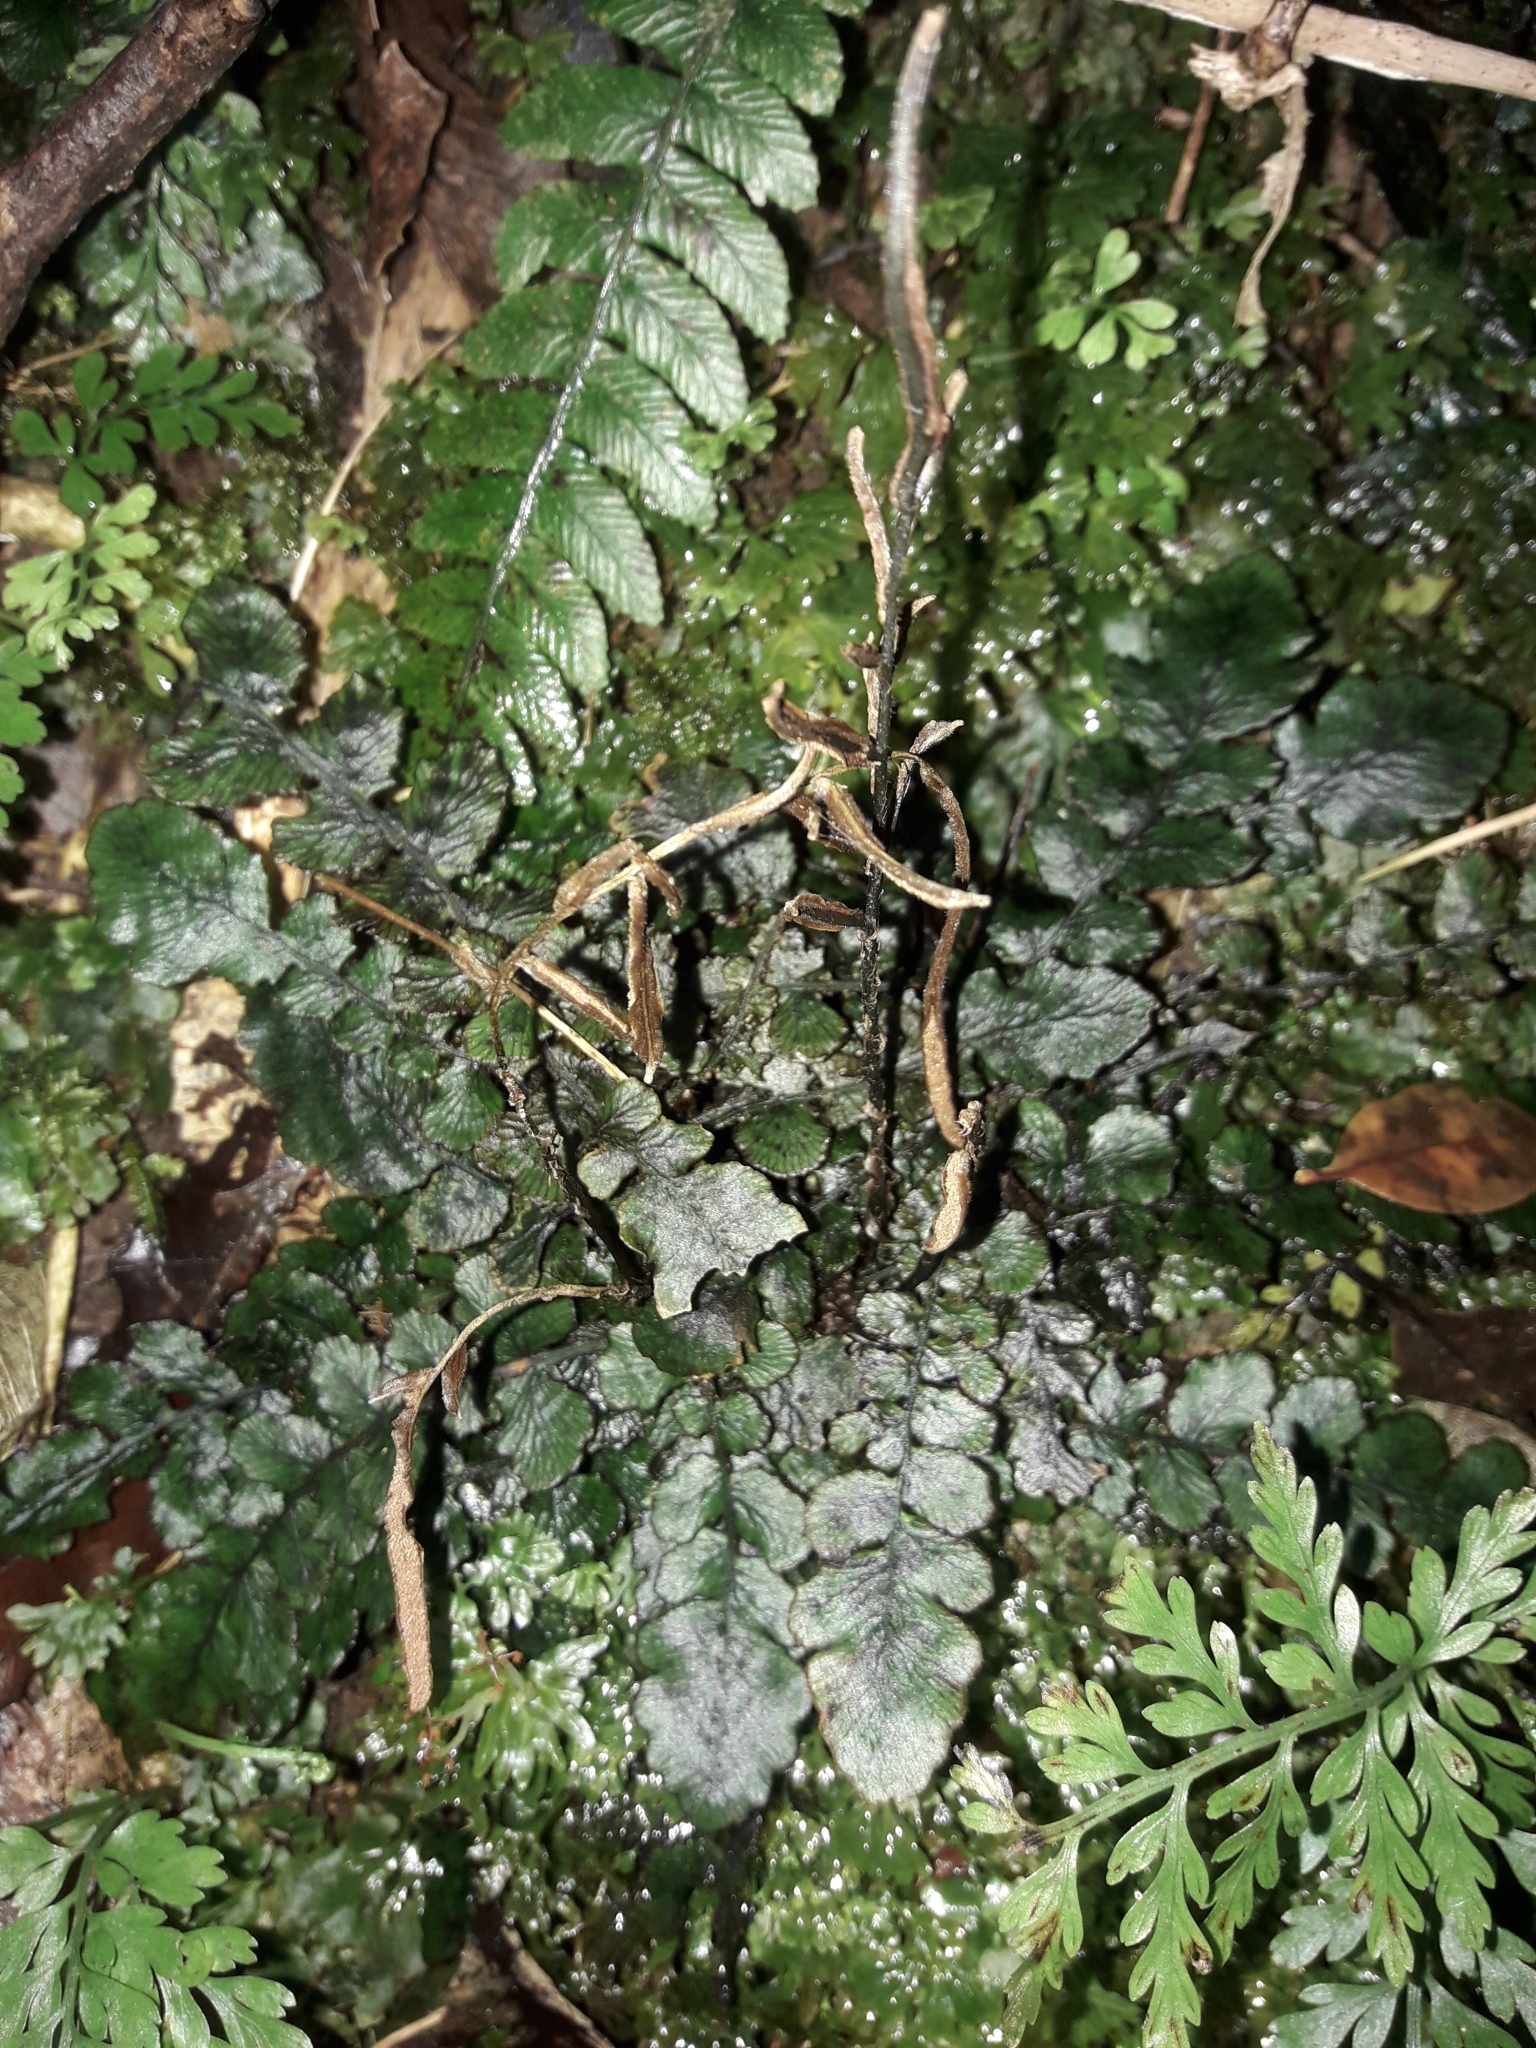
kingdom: Plantae
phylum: Tracheophyta
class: Polypodiopsida
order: Polypodiales
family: Blechnaceae
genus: Cranfillia
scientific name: Cranfillia nigra
